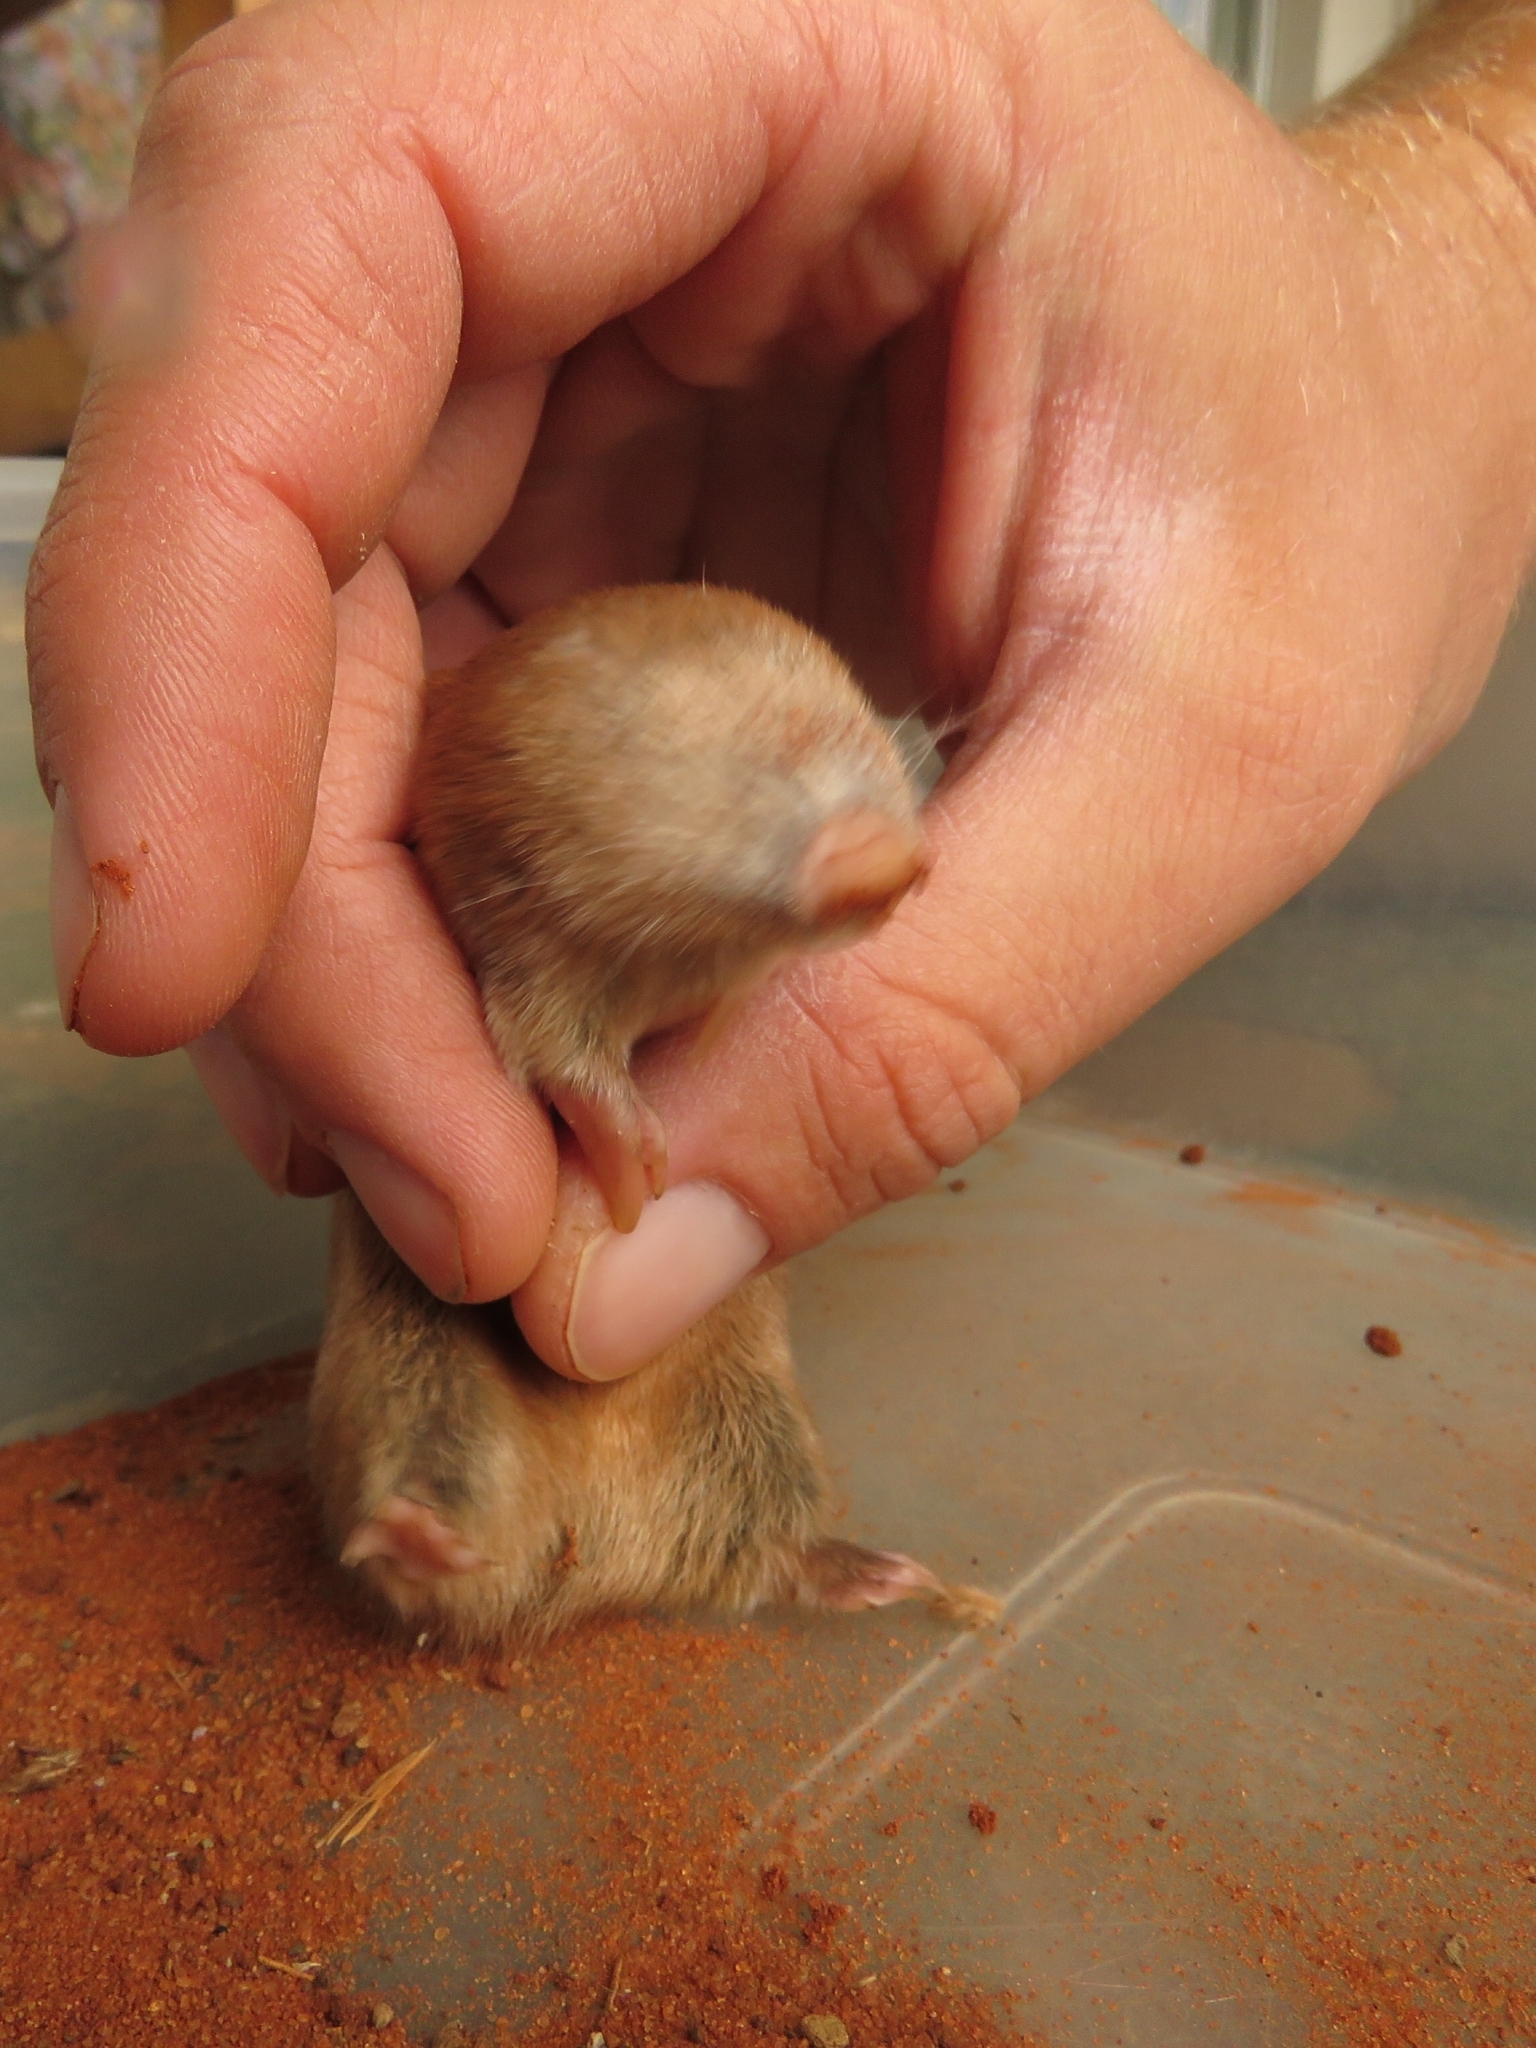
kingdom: Animalia
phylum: Chordata
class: Mammalia
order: Afrosoricida
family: Chrysochloridae
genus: Amblysomus
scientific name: Amblysomus hottentotus
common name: Hottentot golden mole
